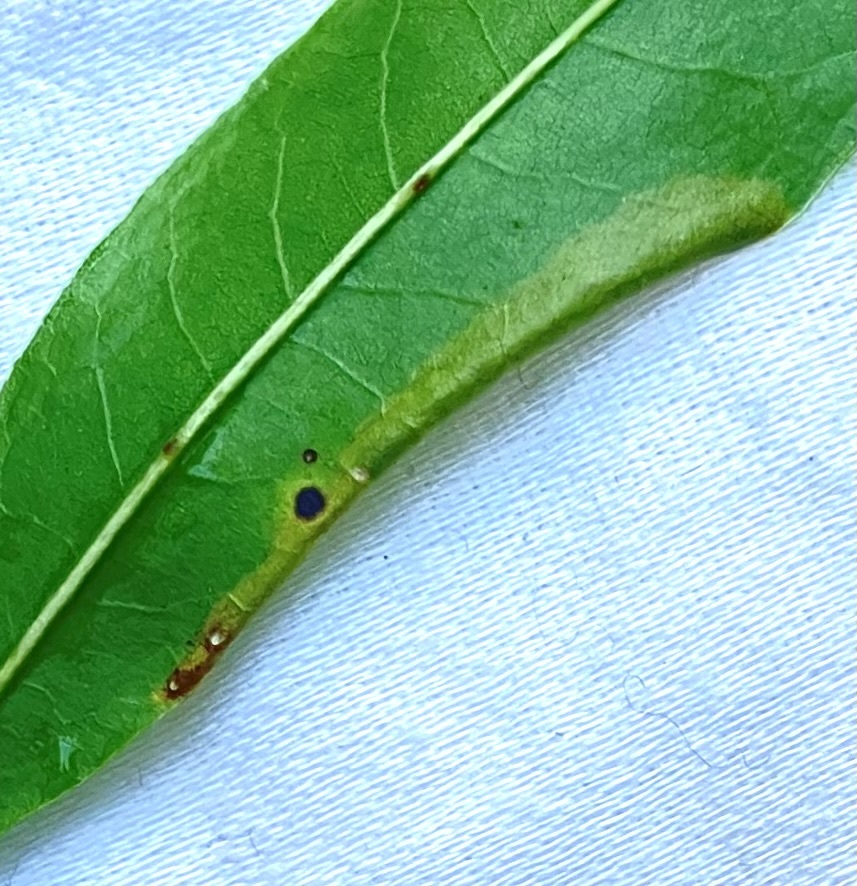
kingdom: Animalia
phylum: Arthropoda
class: Insecta
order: Lepidoptera
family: Tischeriidae
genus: Coptotriche
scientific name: Coptotriche citrinipennella
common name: The golden sweeper
